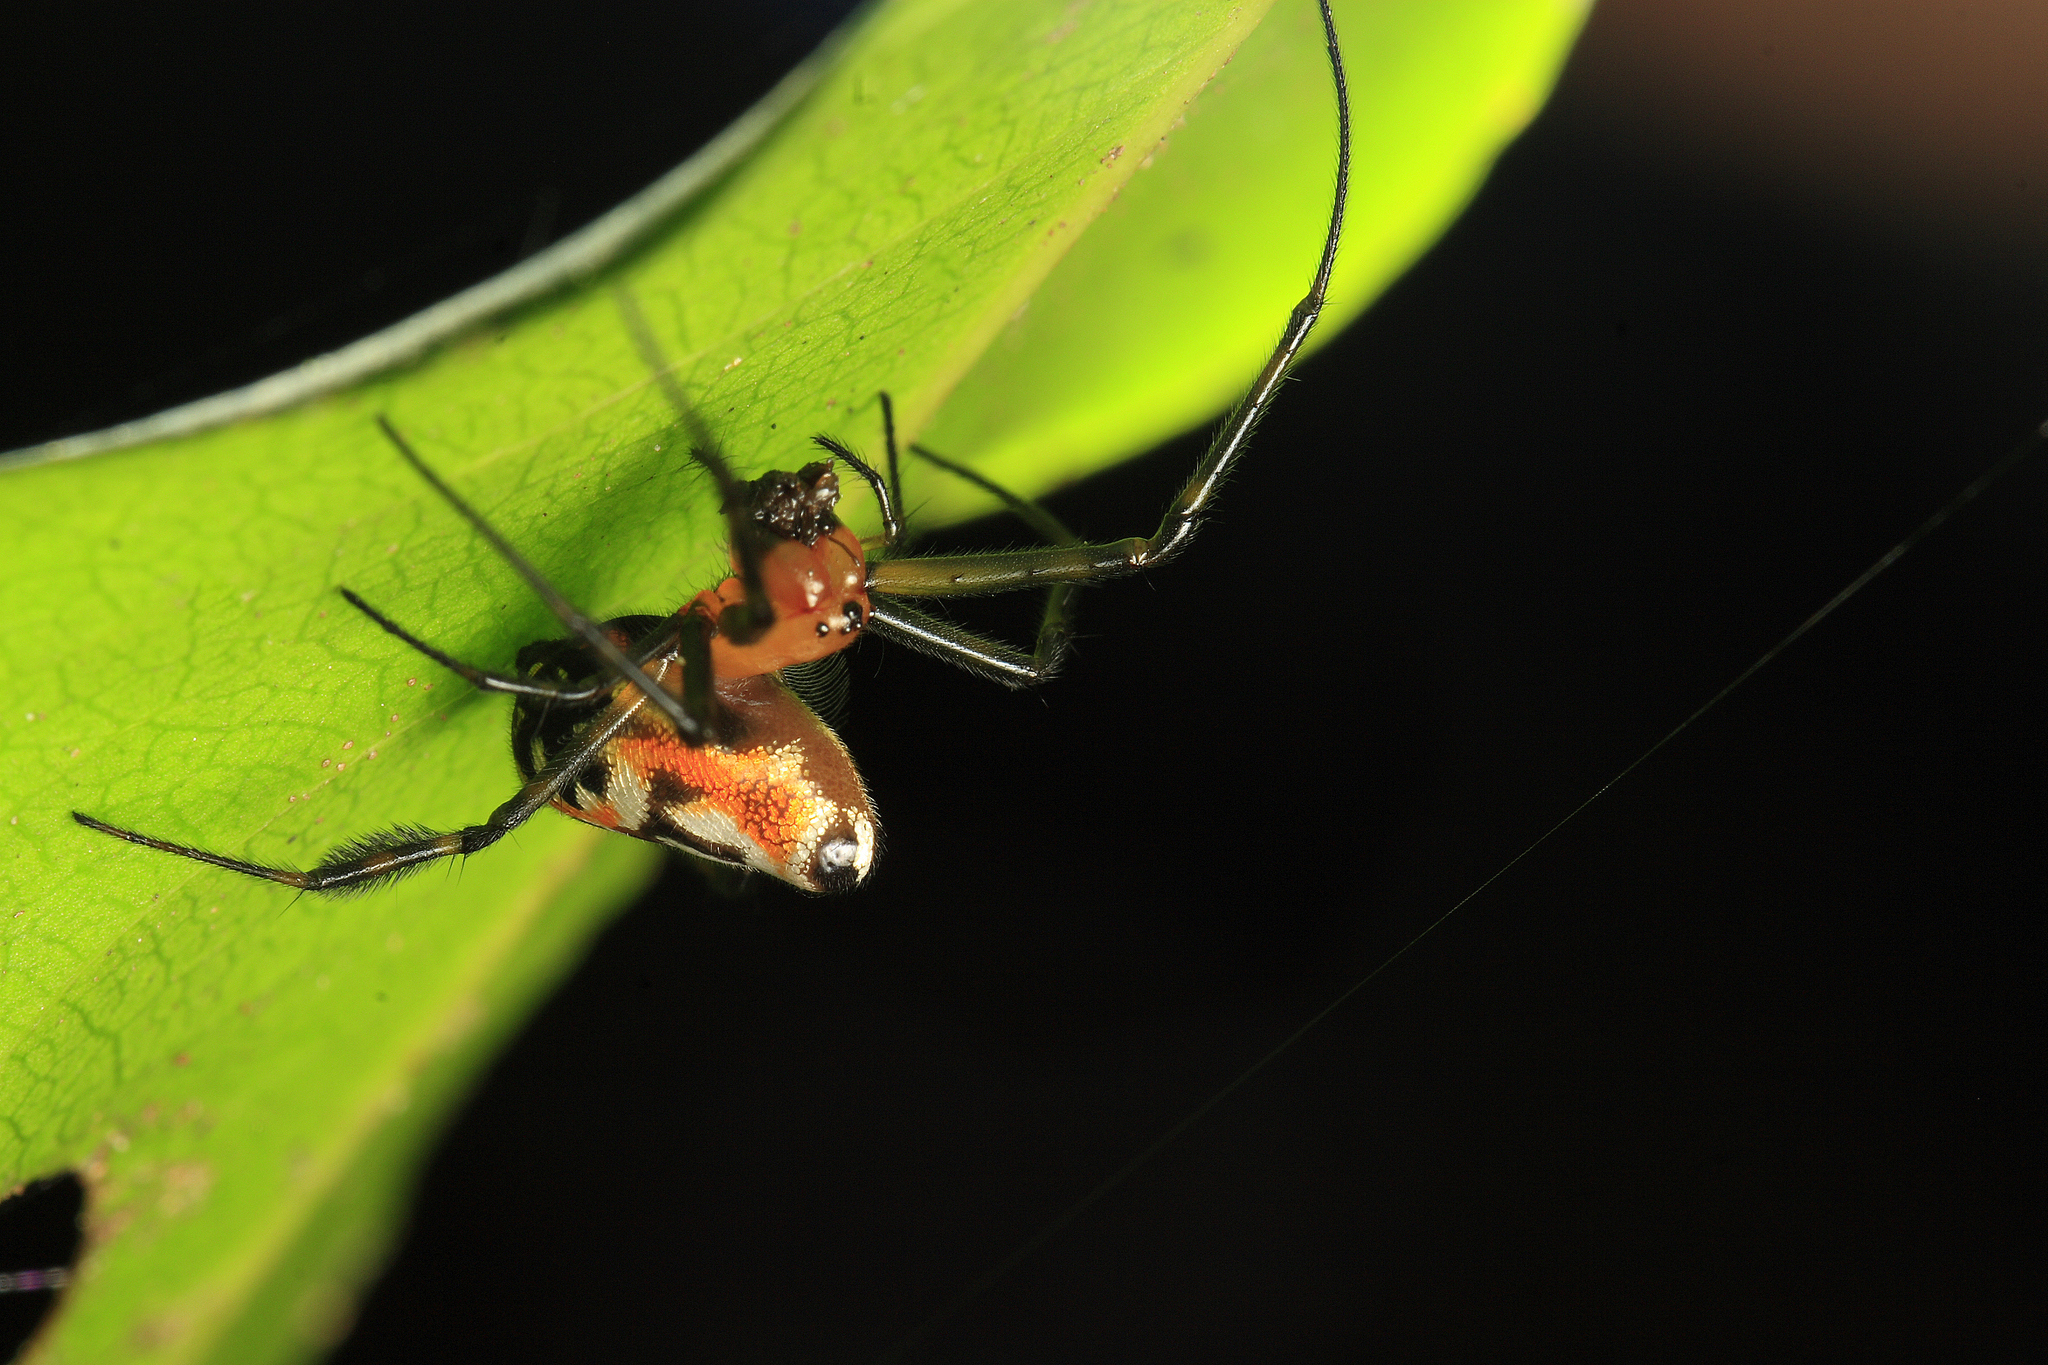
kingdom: Animalia
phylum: Arthropoda
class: Arachnida
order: Araneae
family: Tetragnathidae
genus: Leucauge
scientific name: Leucauge fastigata
